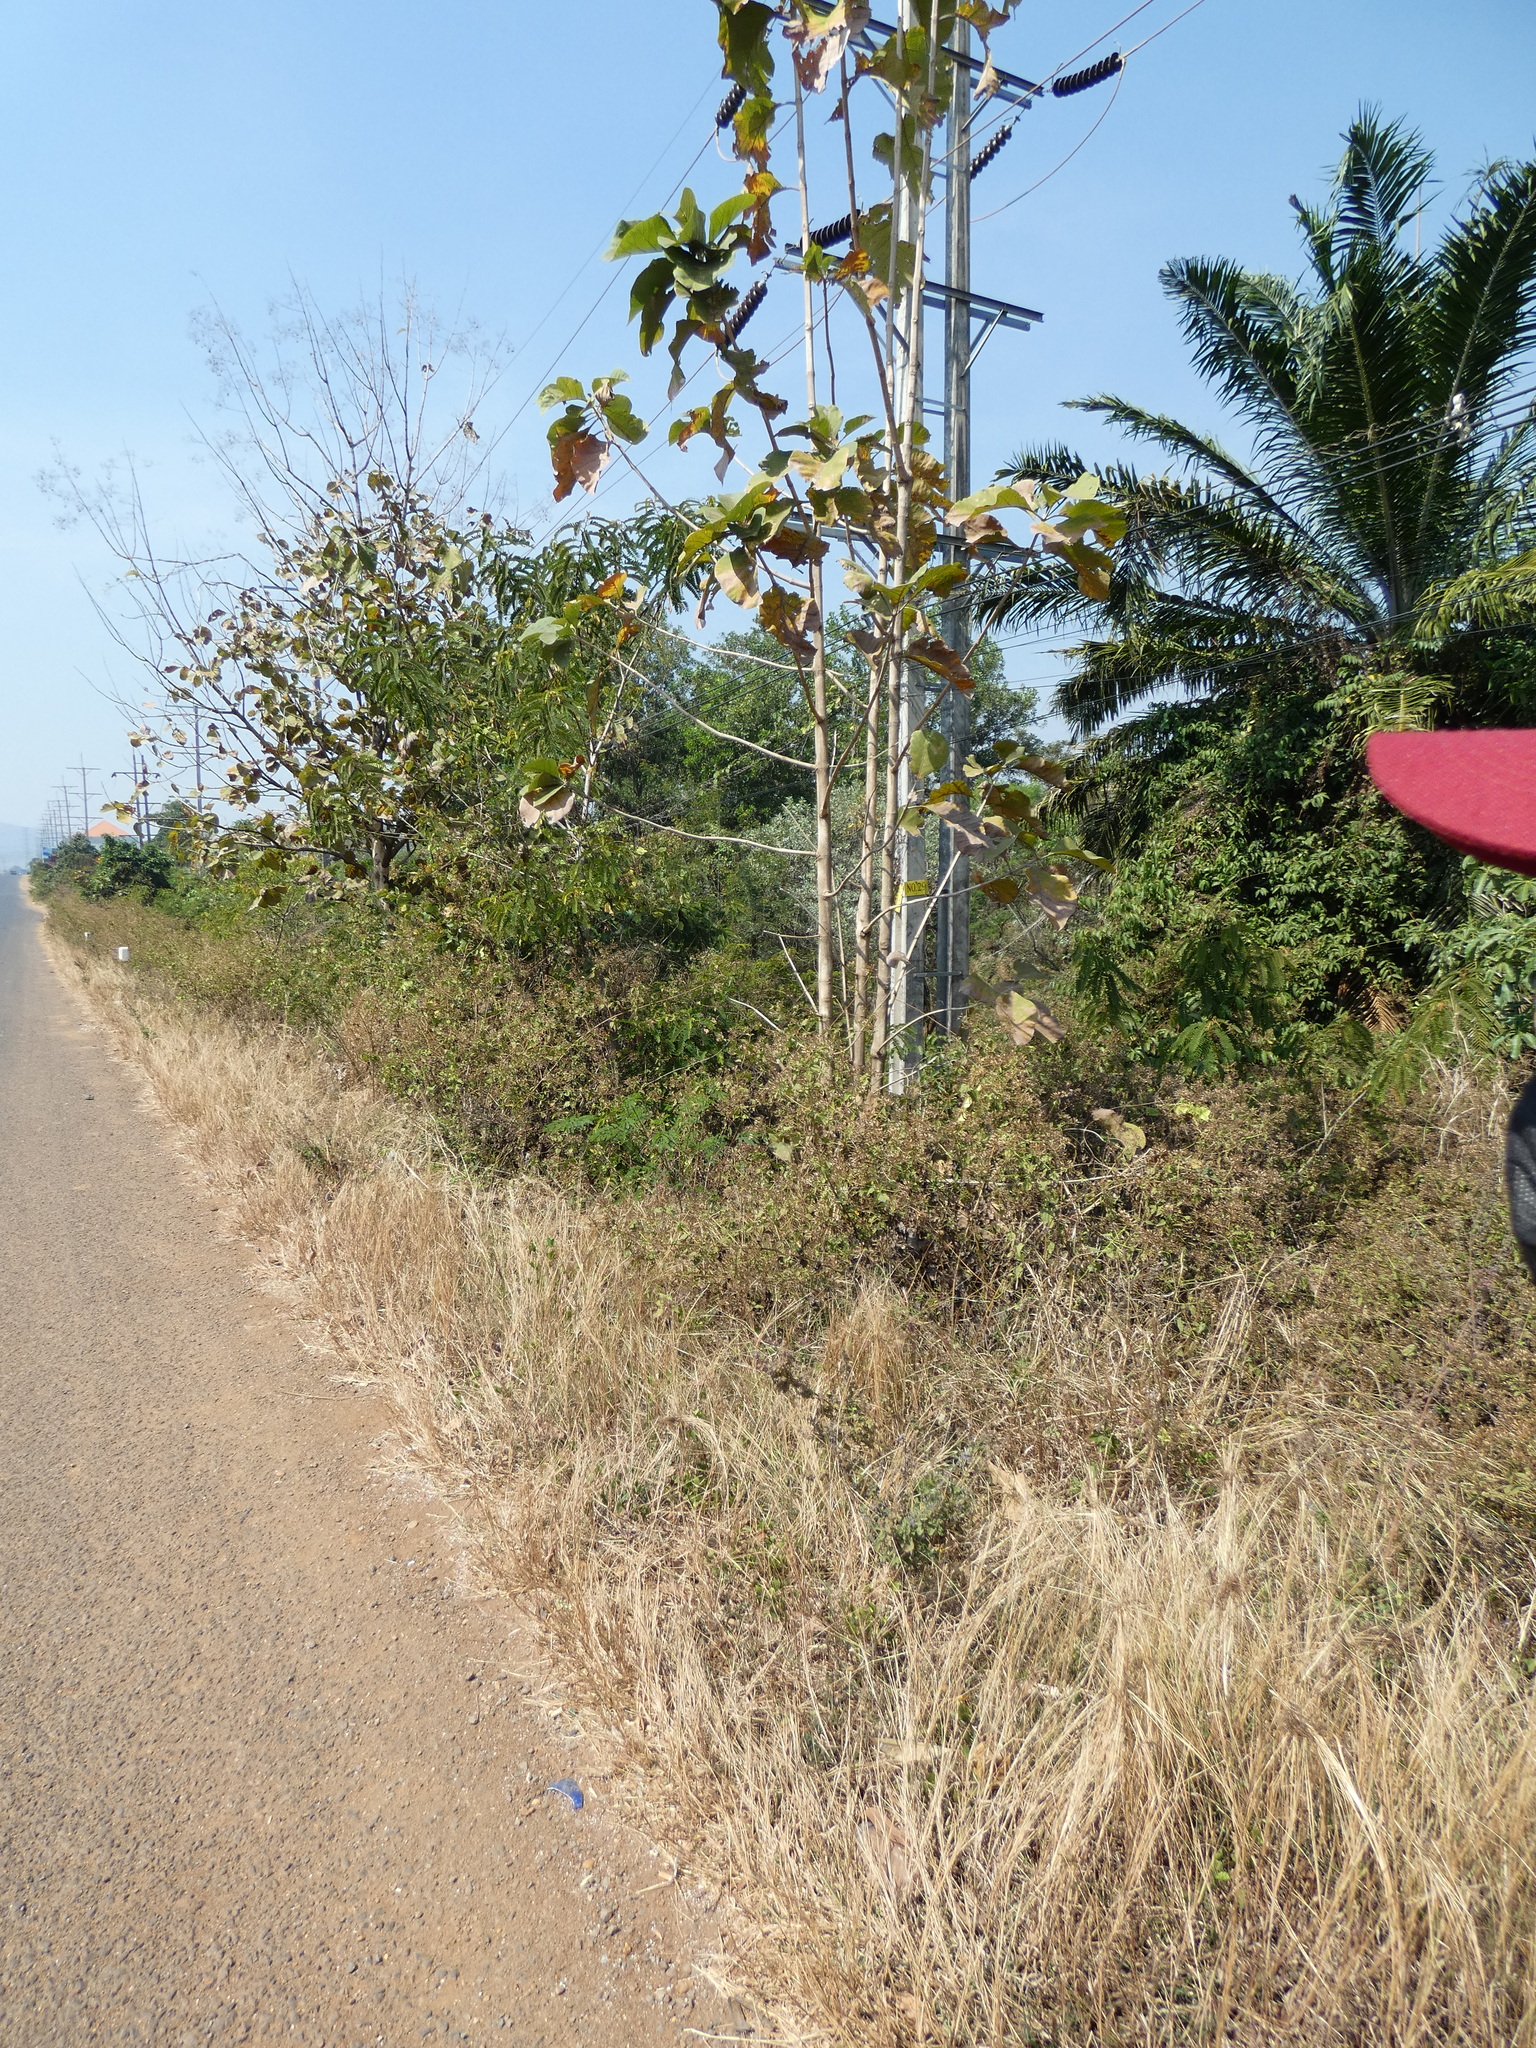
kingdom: Plantae
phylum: Tracheophyta
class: Magnoliopsida
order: Lamiales
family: Lamiaceae
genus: Tectona
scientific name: Tectona grandis
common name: Teak
